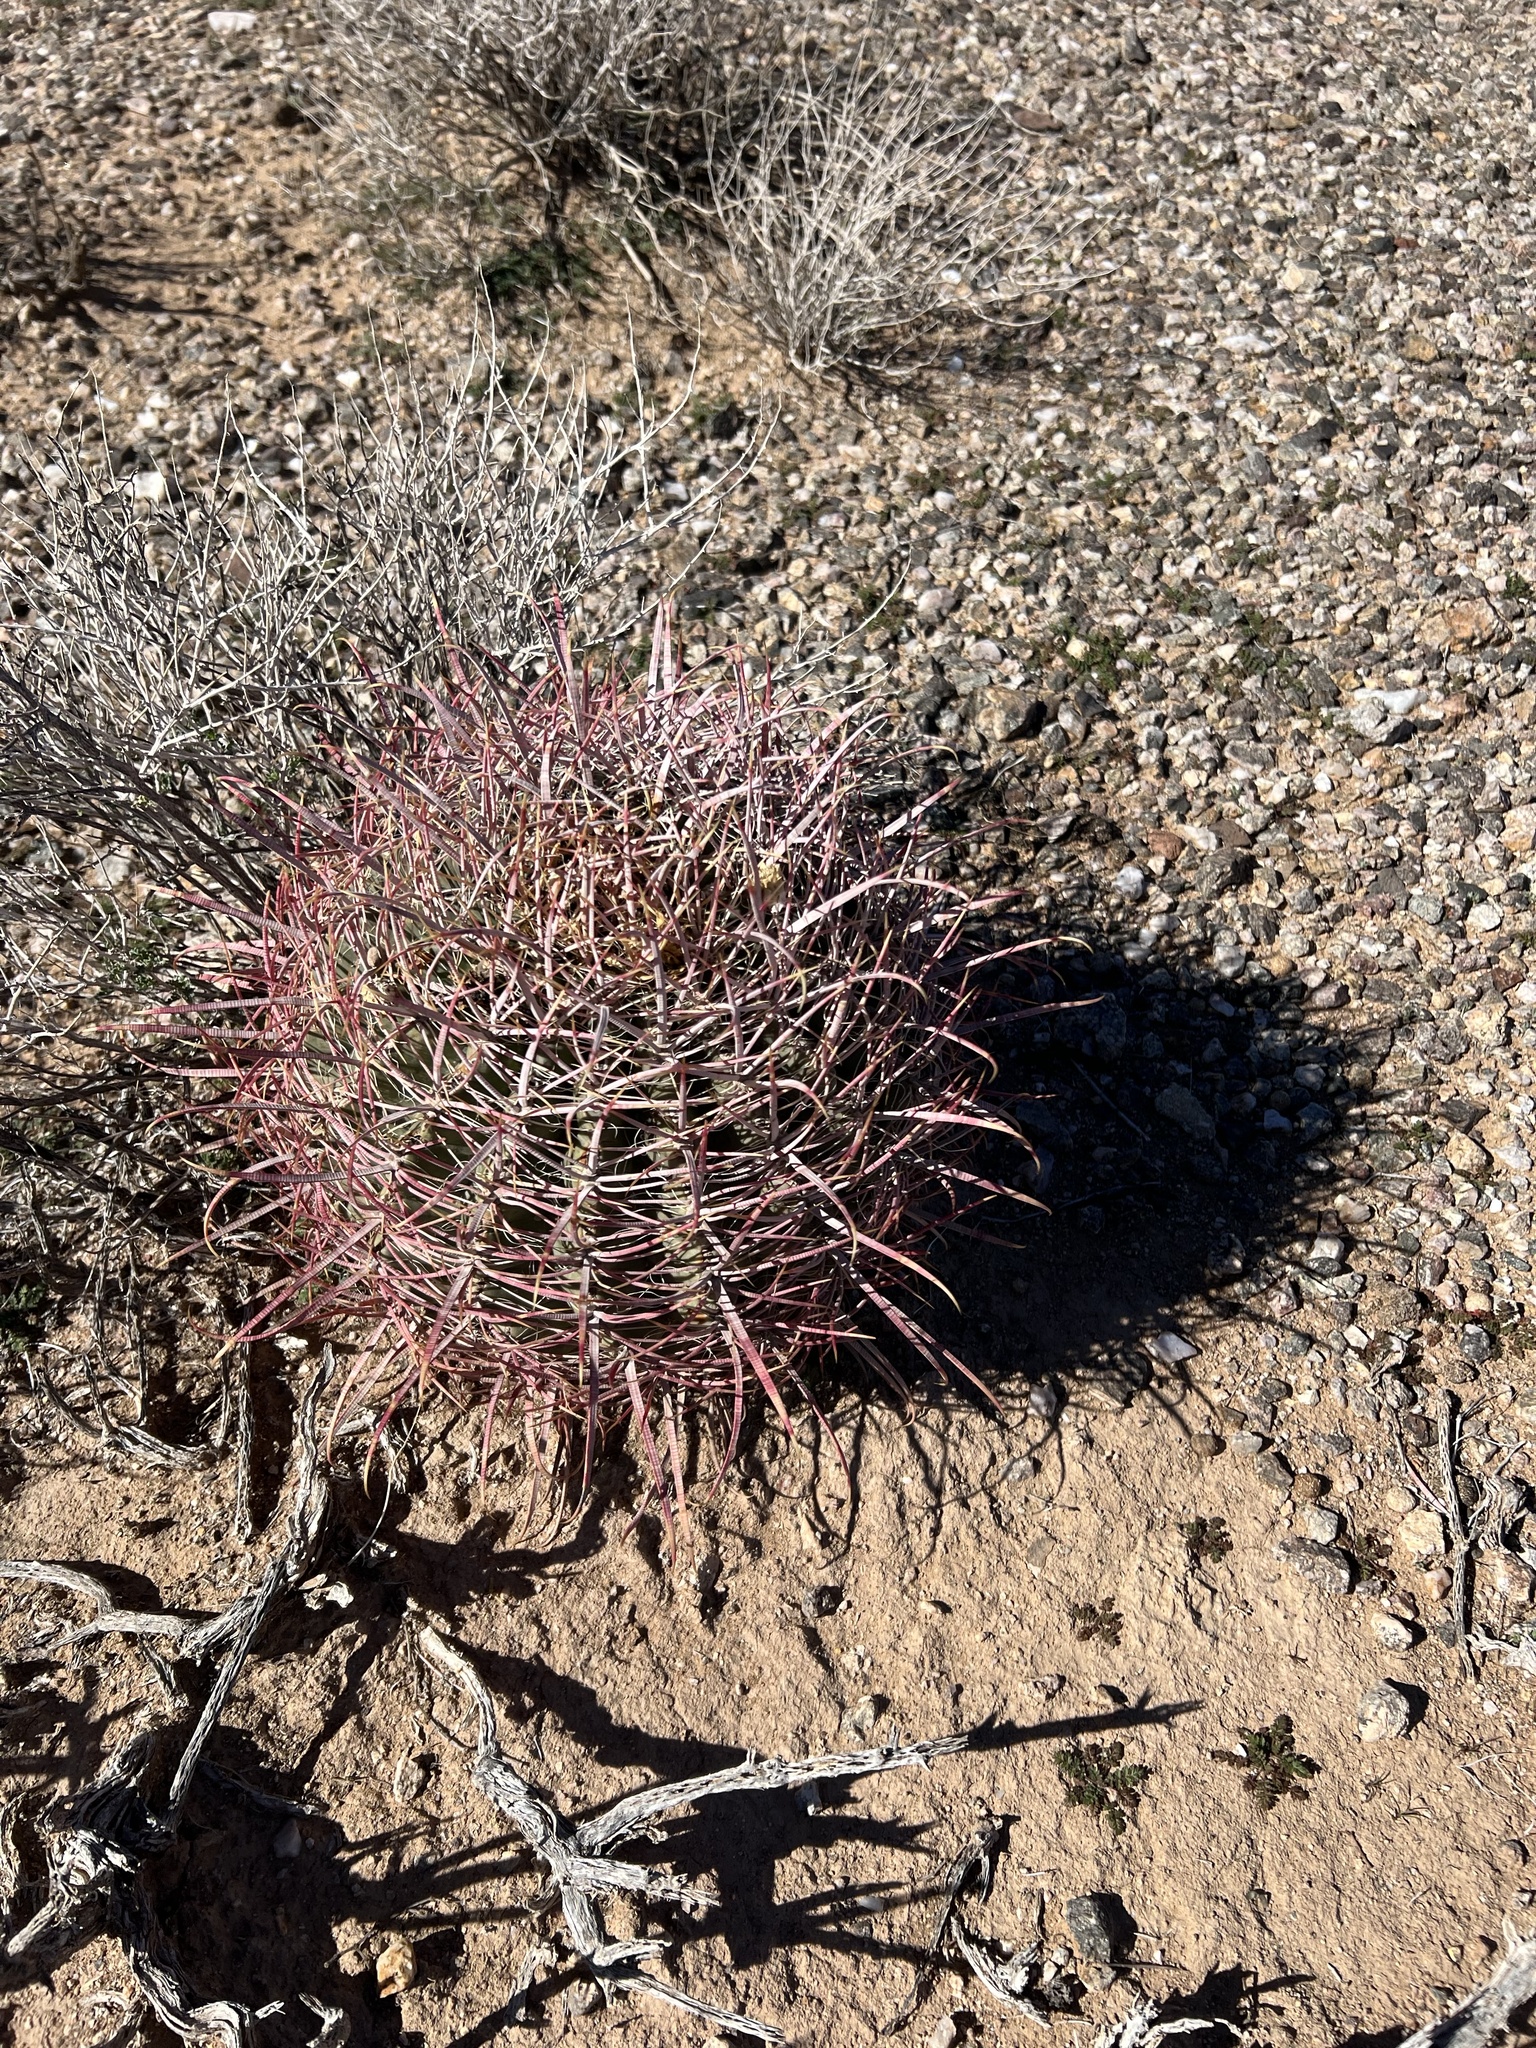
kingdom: Plantae
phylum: Tracheophyta
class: Magnoliopsida
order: Caryophyllales
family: Cactaceae
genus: Ferocactus
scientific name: Ferocactus cylindraceus
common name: California barrel cactus
